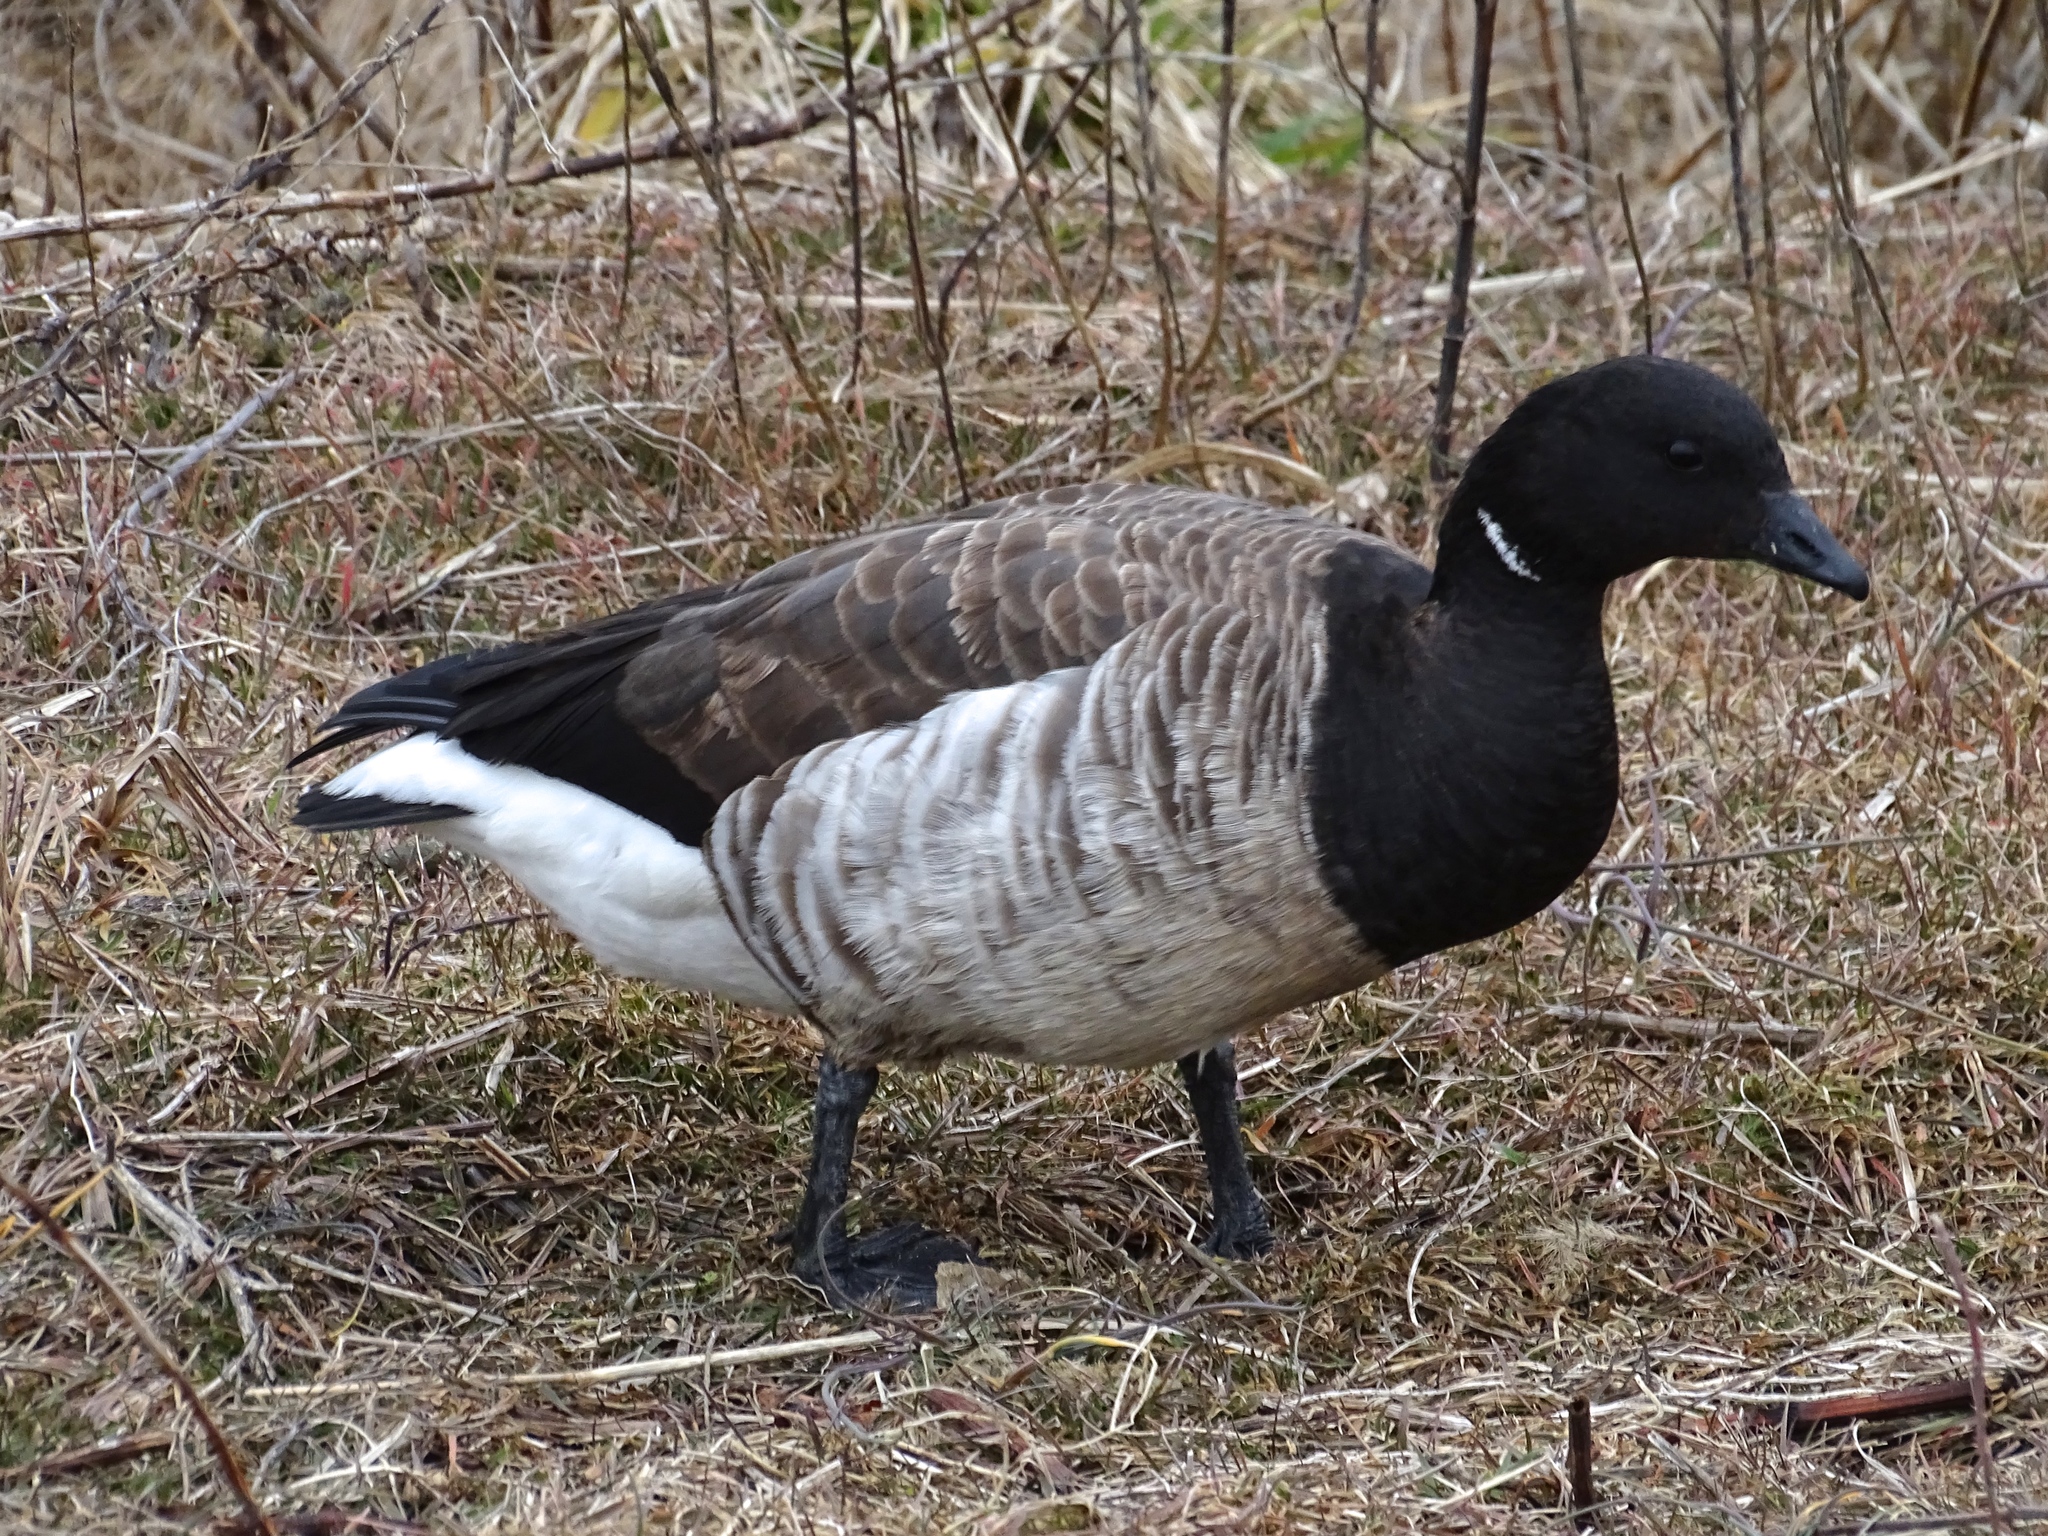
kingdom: Animalia
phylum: Chordata
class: Aves
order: Anseriformes
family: Anatidae
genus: Branta
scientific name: Branta bernicla
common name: Brant goose
